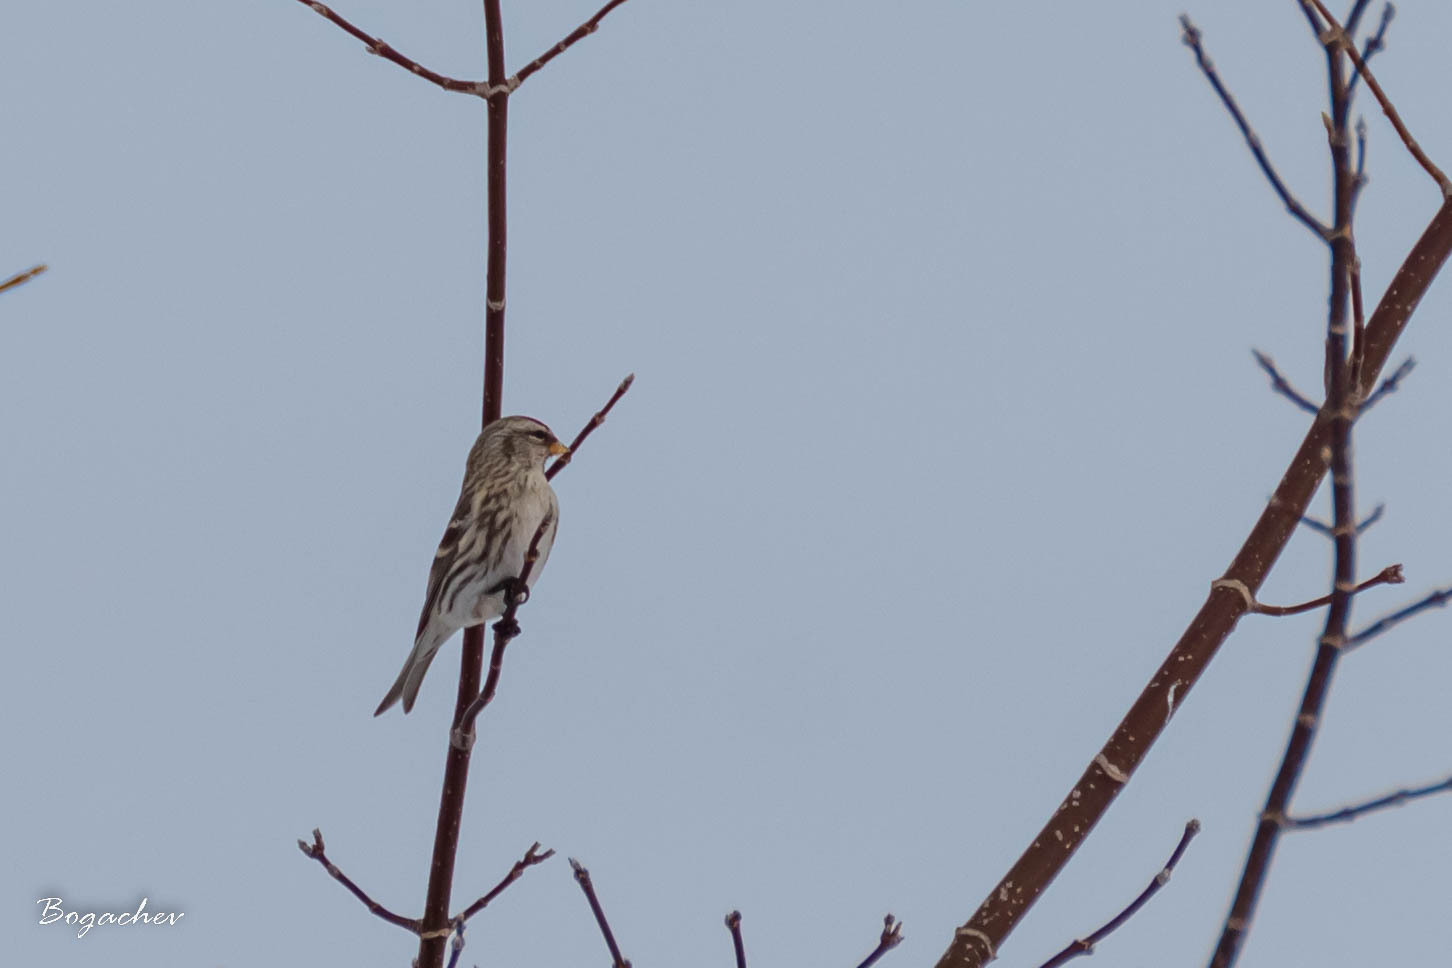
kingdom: Animalia
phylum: Chordata
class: Aves
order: Passeriformes
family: Fringillidae
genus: Acanthis
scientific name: Acanthis flammea
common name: Common redpoll
